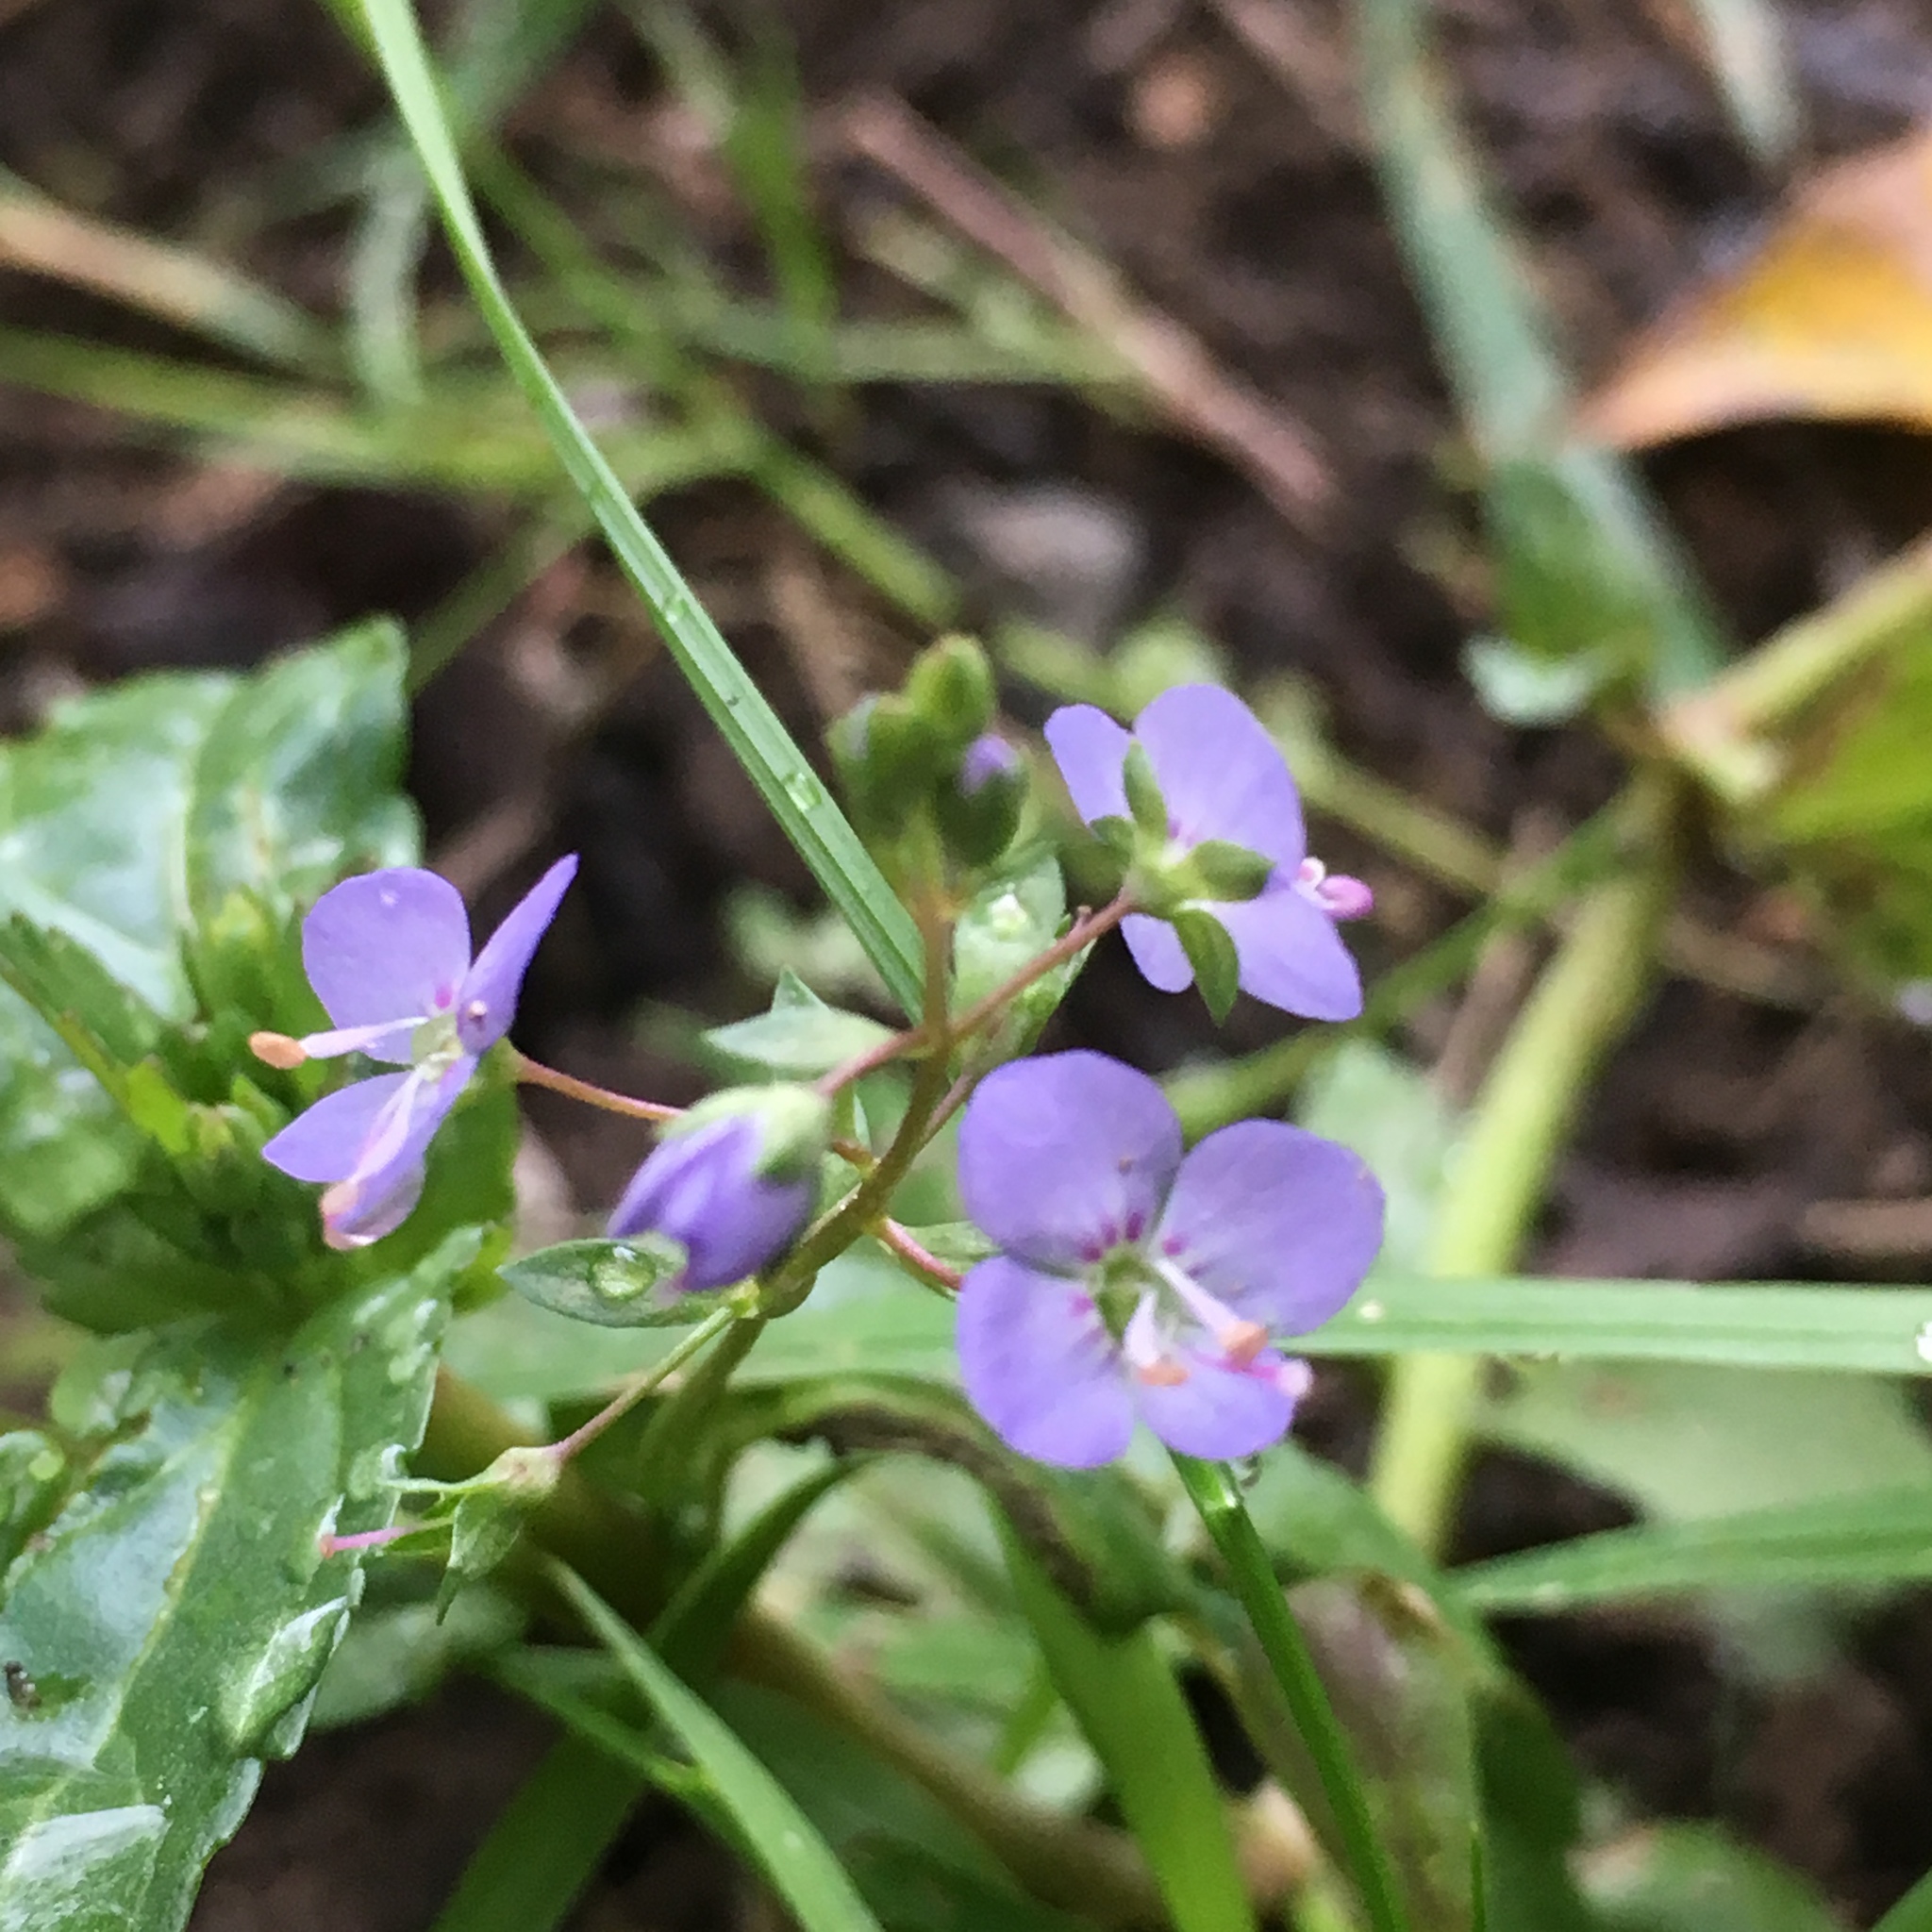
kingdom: Plantae
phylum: Tracheophyta
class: Magnoliopsida
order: Lamiales
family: Plantaginaceae
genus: Veronica
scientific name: Veronica americana
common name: American brooklime
